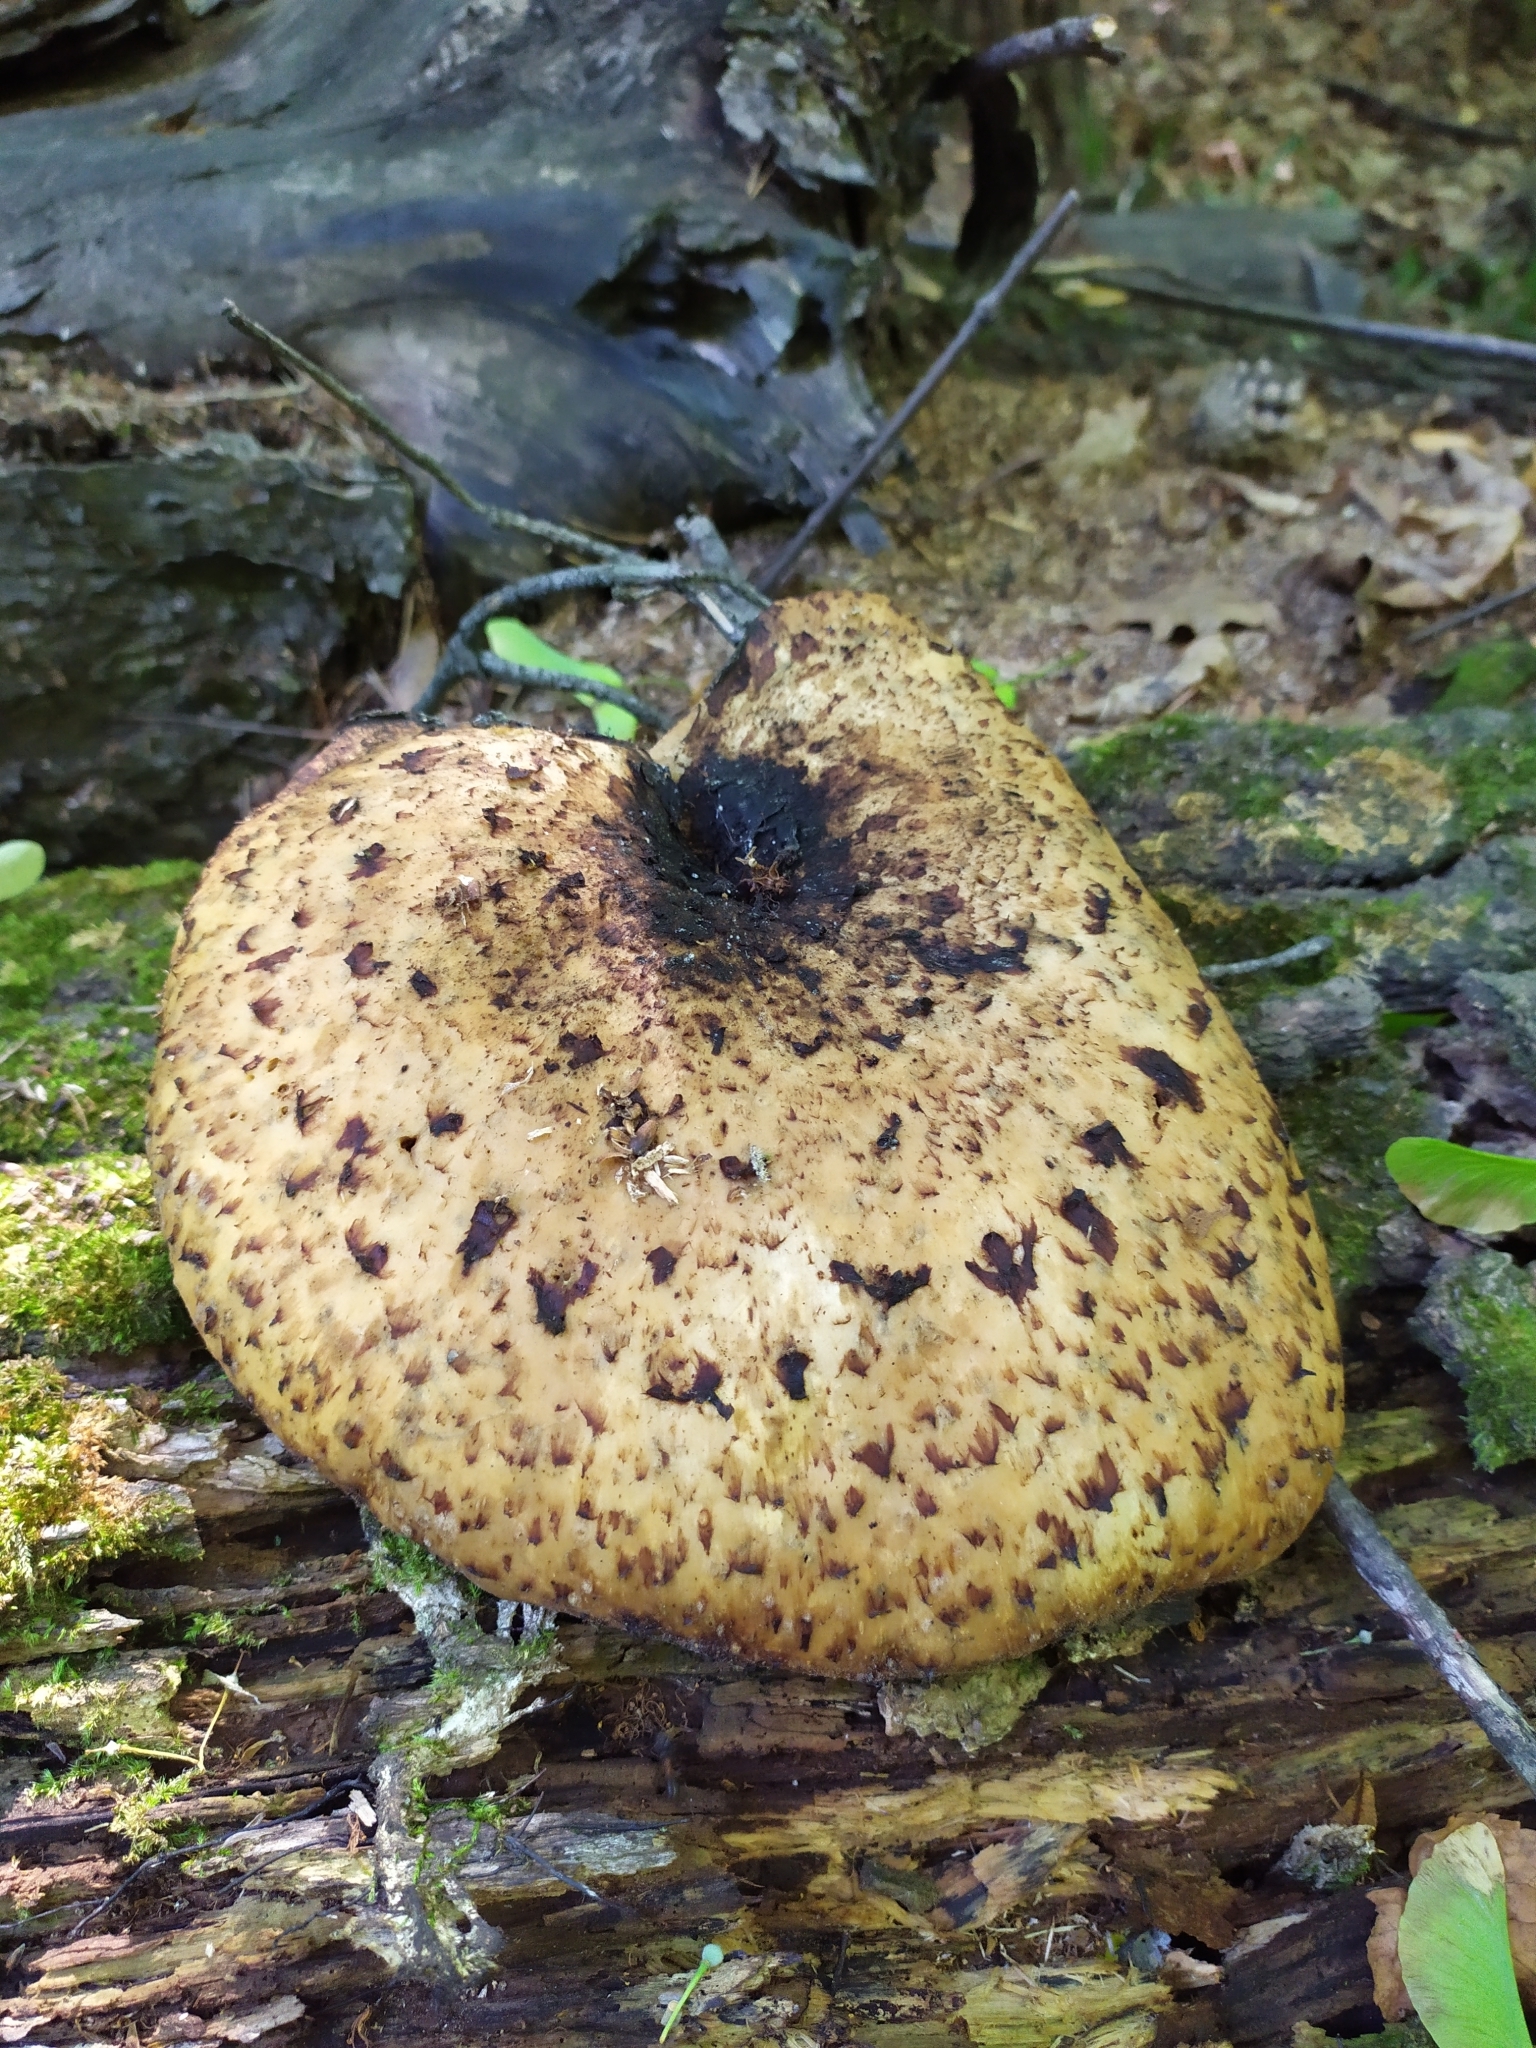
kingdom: Fungi
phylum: Basidiomycota
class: Agaricomycetes
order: Polyporales
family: Polyporaceae
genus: Cerioporus
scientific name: Cerioporus squamosus
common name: Dryad's saddle
